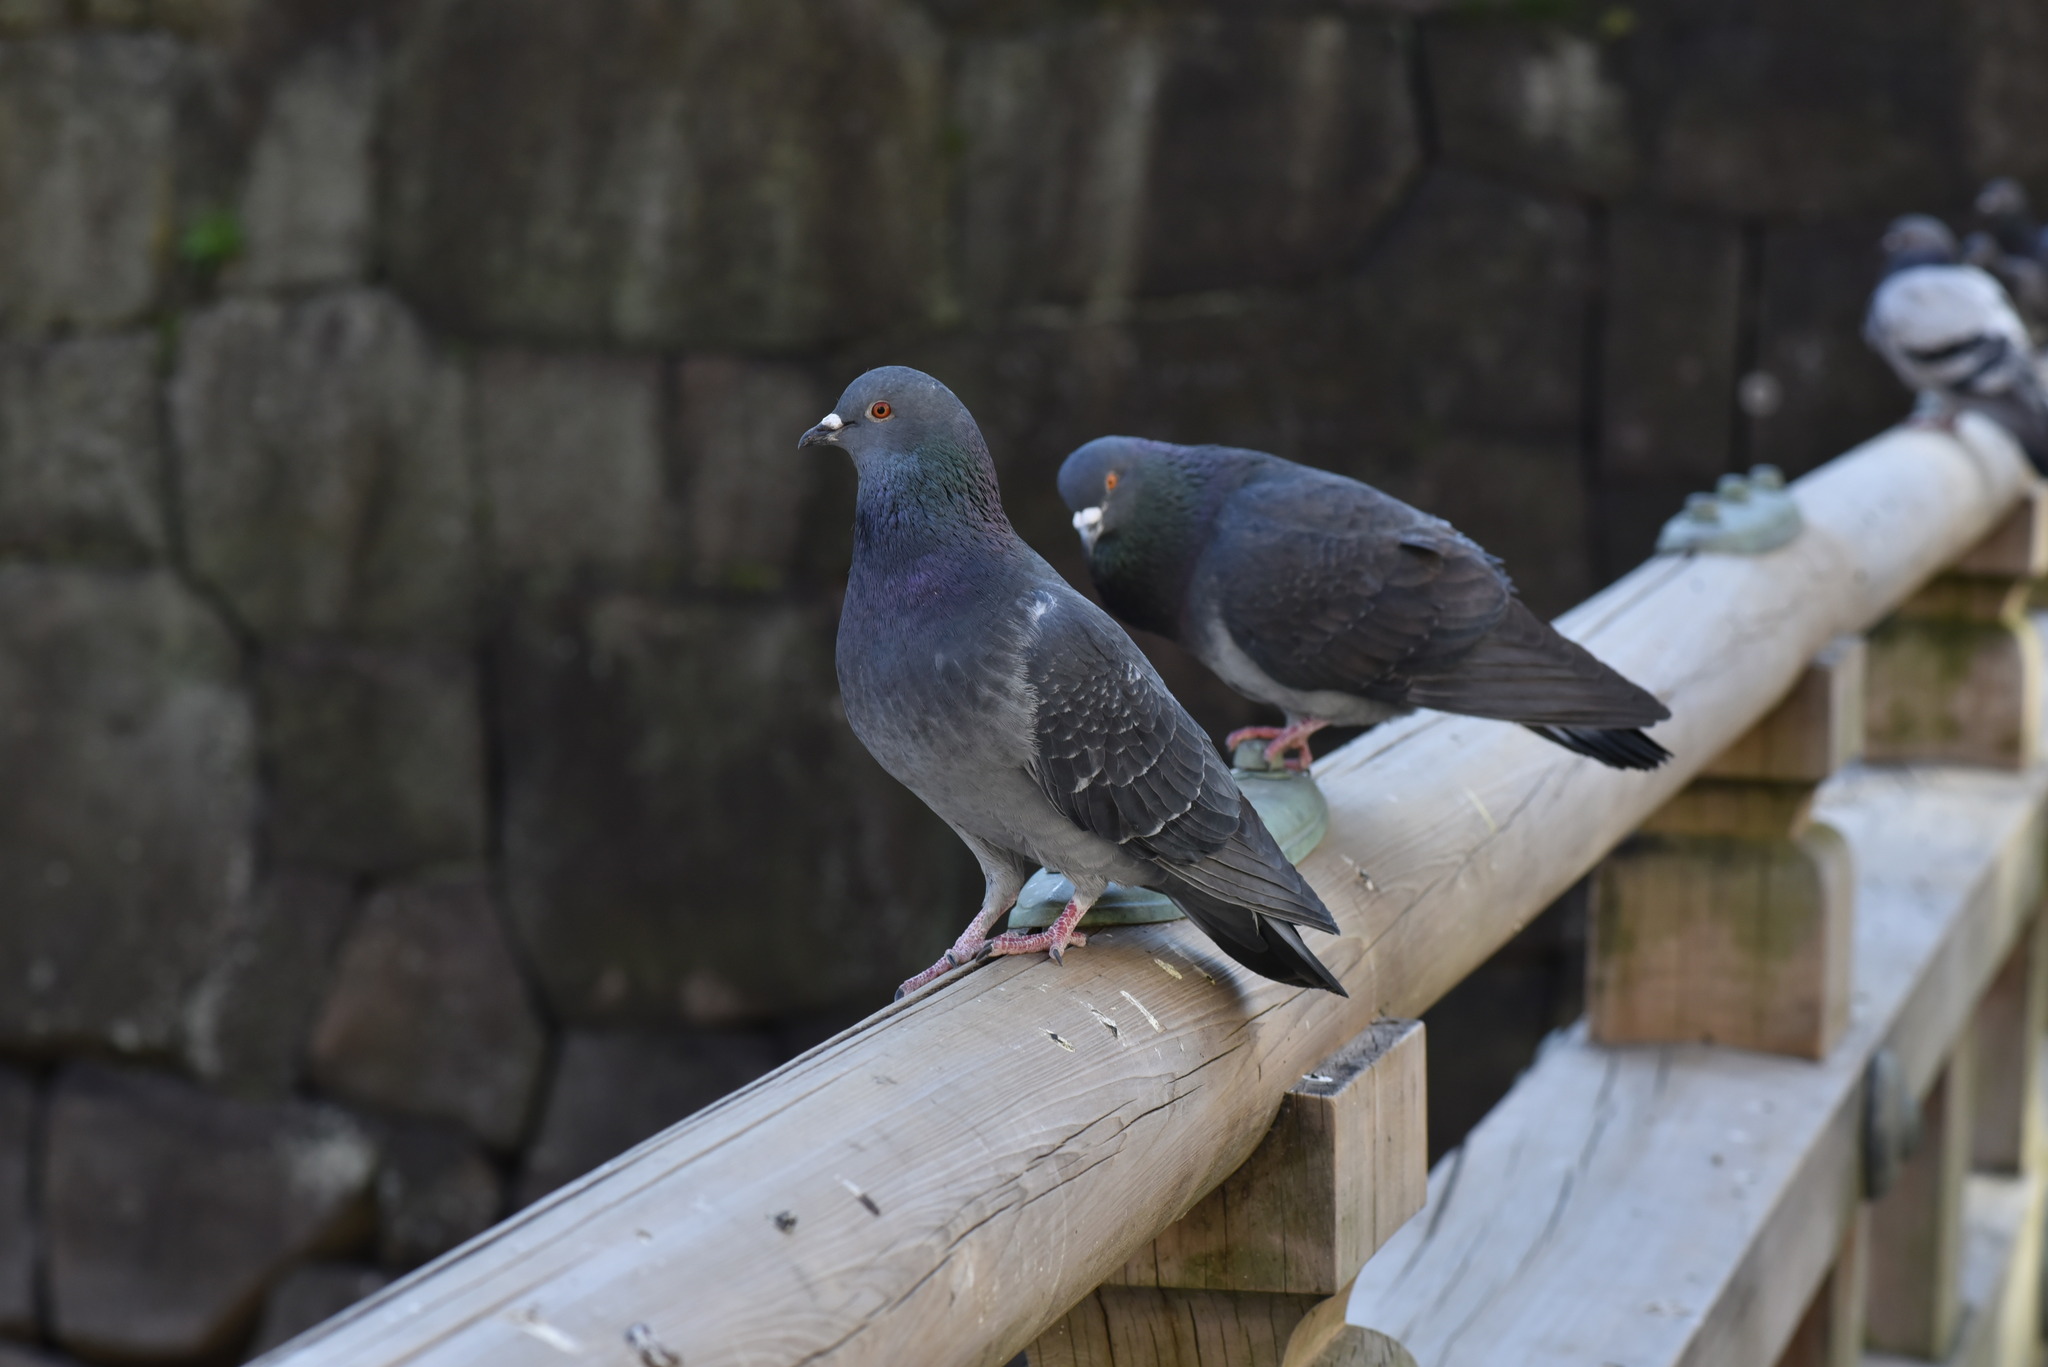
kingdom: Animalia
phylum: Chordata
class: Aves
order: Columbiformes
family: Columbidae
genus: Columba
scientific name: Columba livia
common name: Rock pigeon
